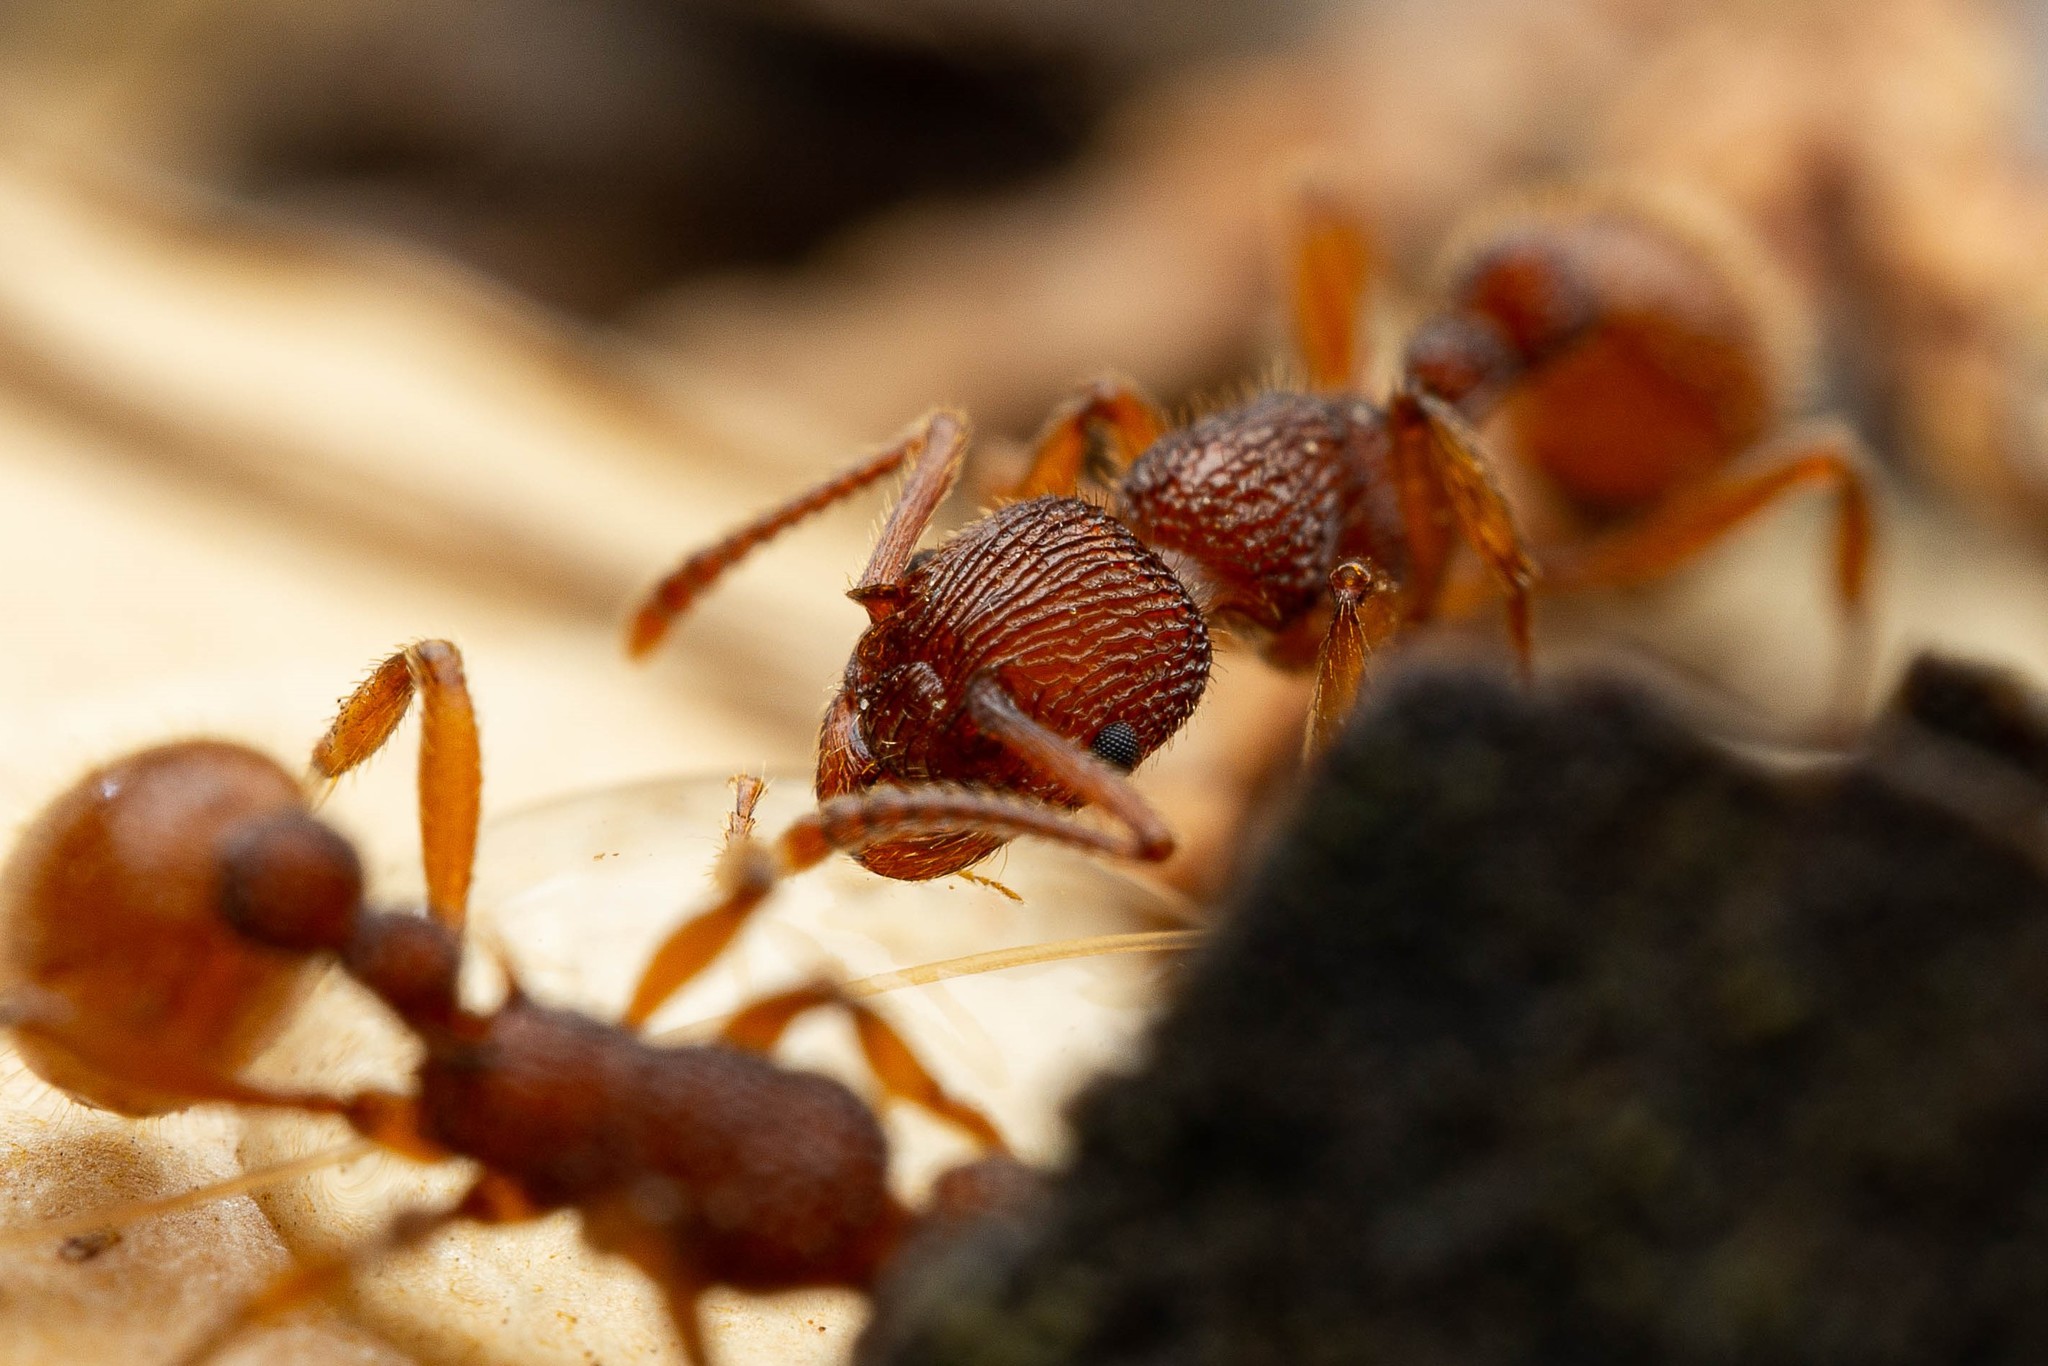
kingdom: Animalia
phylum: Arthropoda
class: Insecta
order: Hymenoptera
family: Formicidae
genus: Myrmica
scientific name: Myrmica striolagaster
